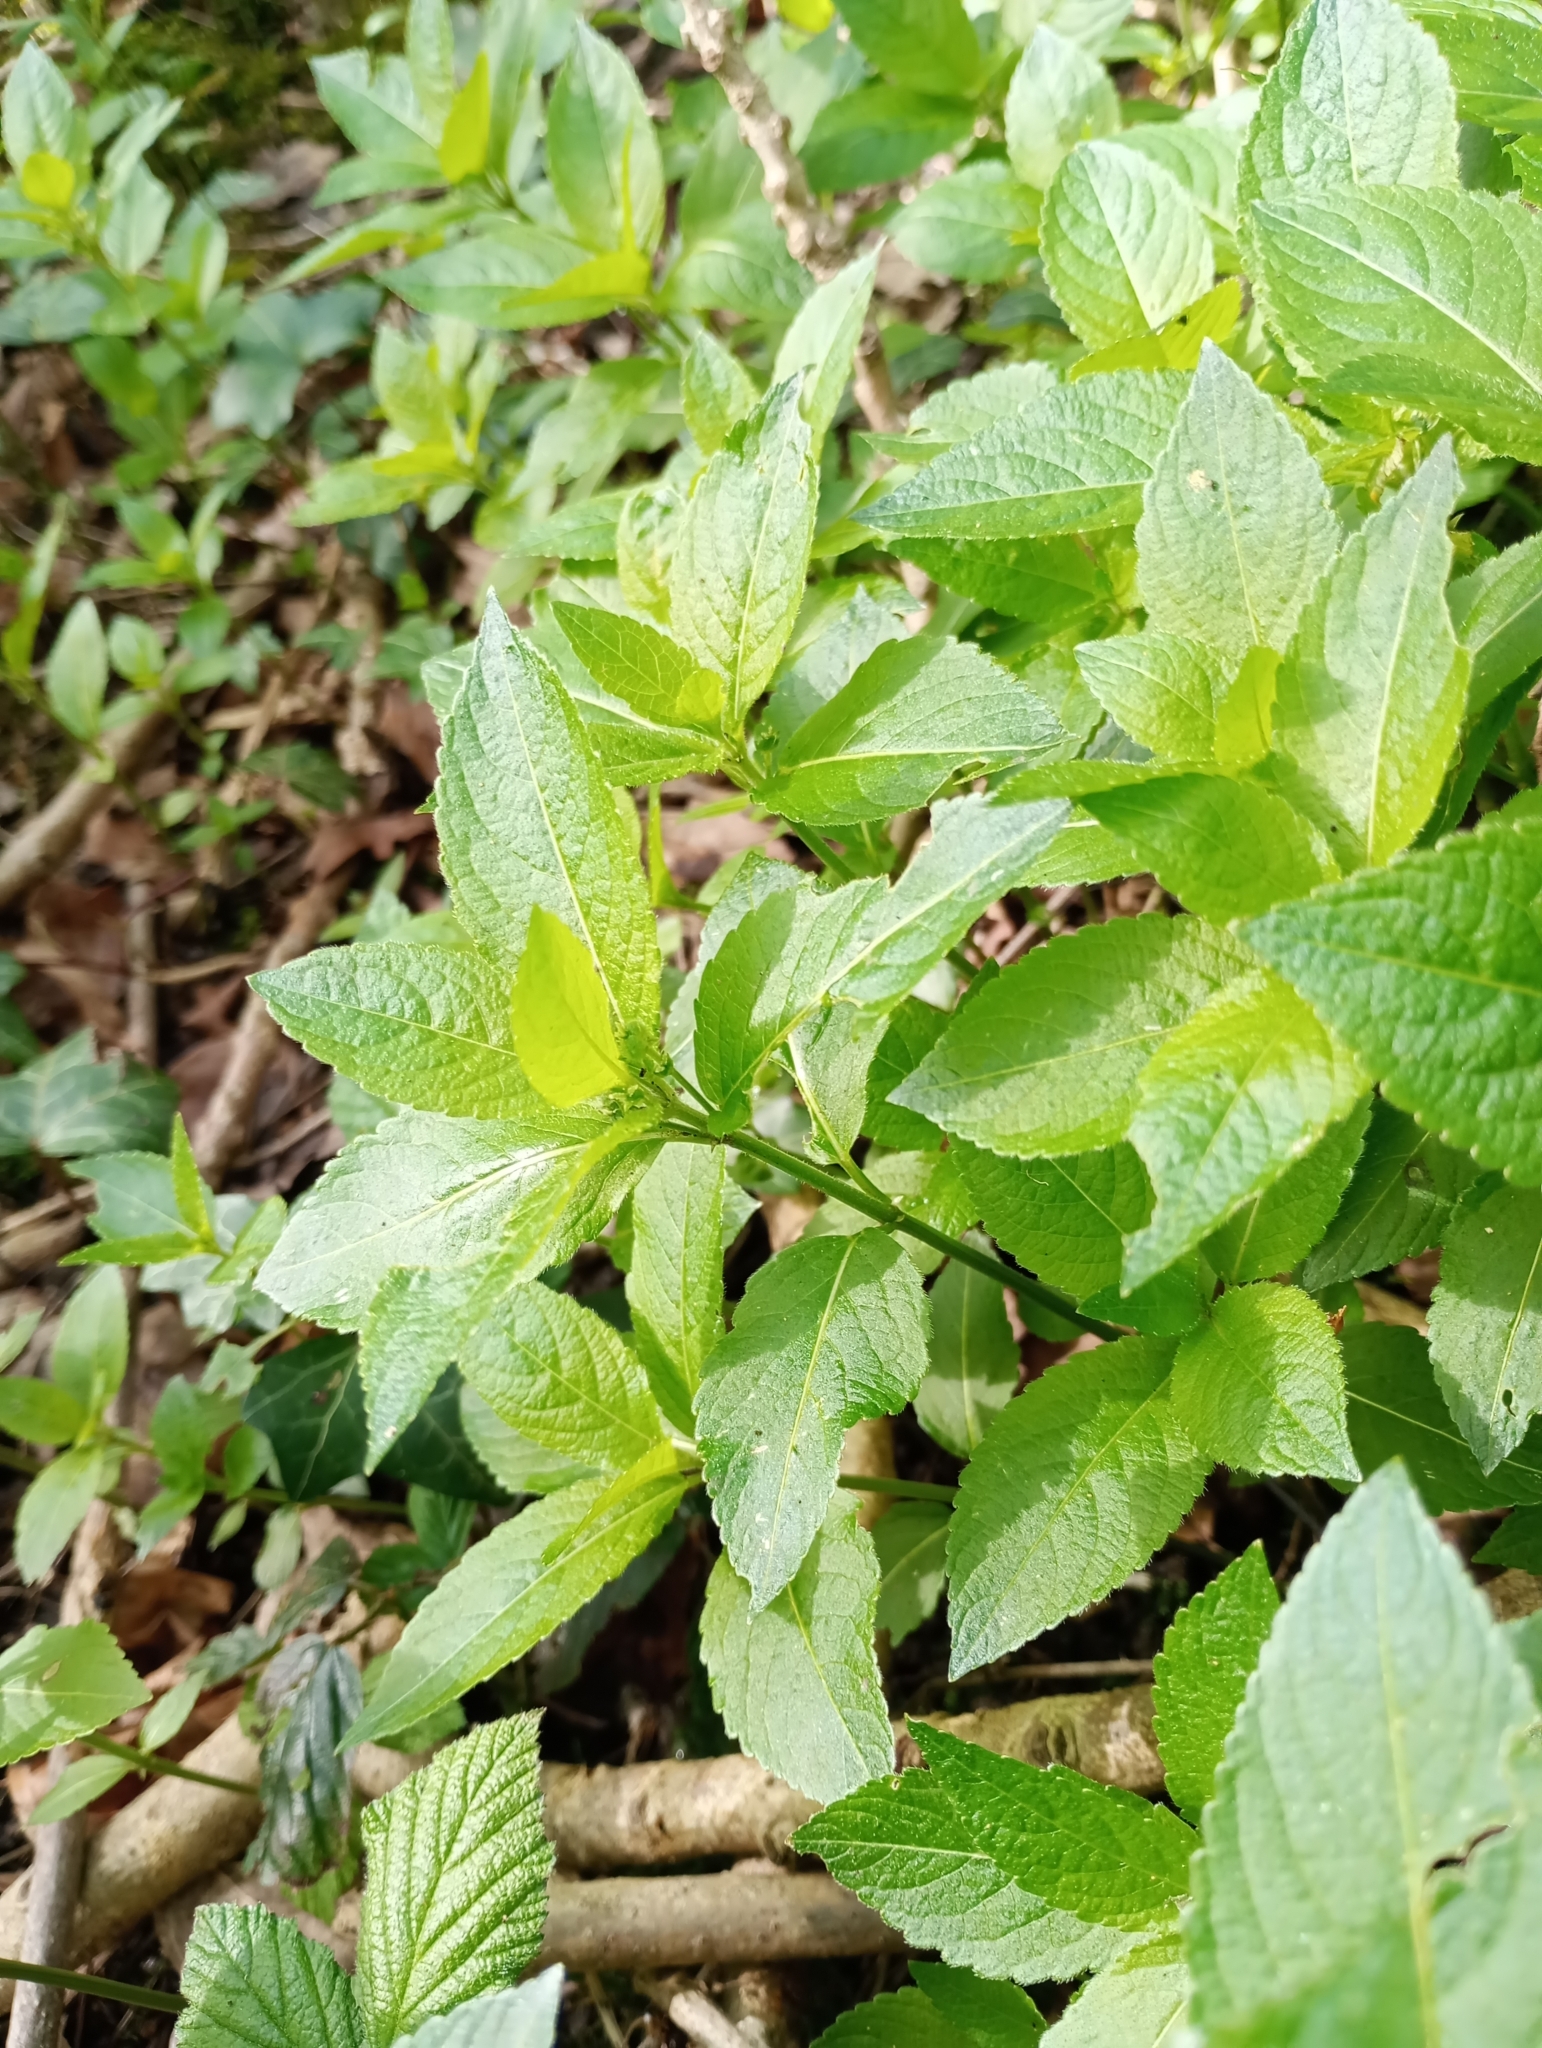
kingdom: Plantae
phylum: Tracheophyta
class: Magnoliopsida
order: Malpighiales
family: Euphorbiaceae
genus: Mercurialis
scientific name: Mercurialis perennis
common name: Dog mercury
